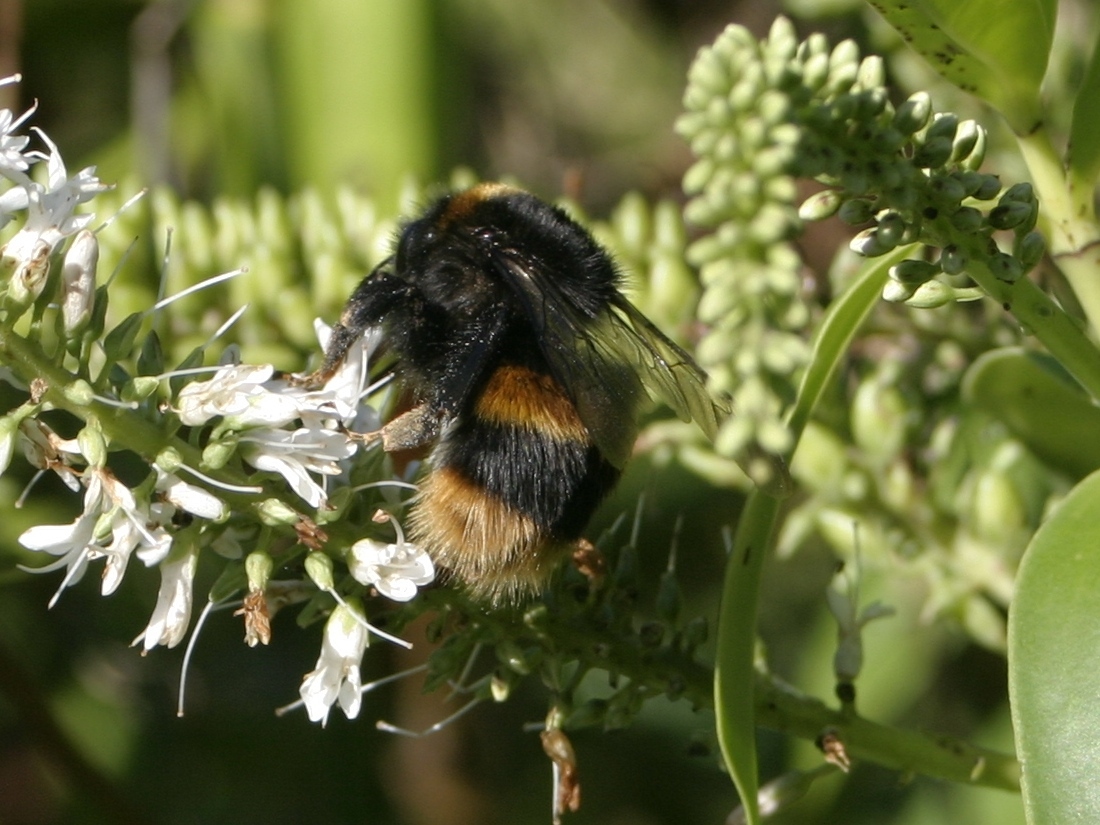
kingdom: Animalia
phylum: Arthropoda
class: Insecta
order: Hymenoptera
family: Apidae
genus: Bombus
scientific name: Bombus terrestris
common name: Buff-tailed bumblebee
